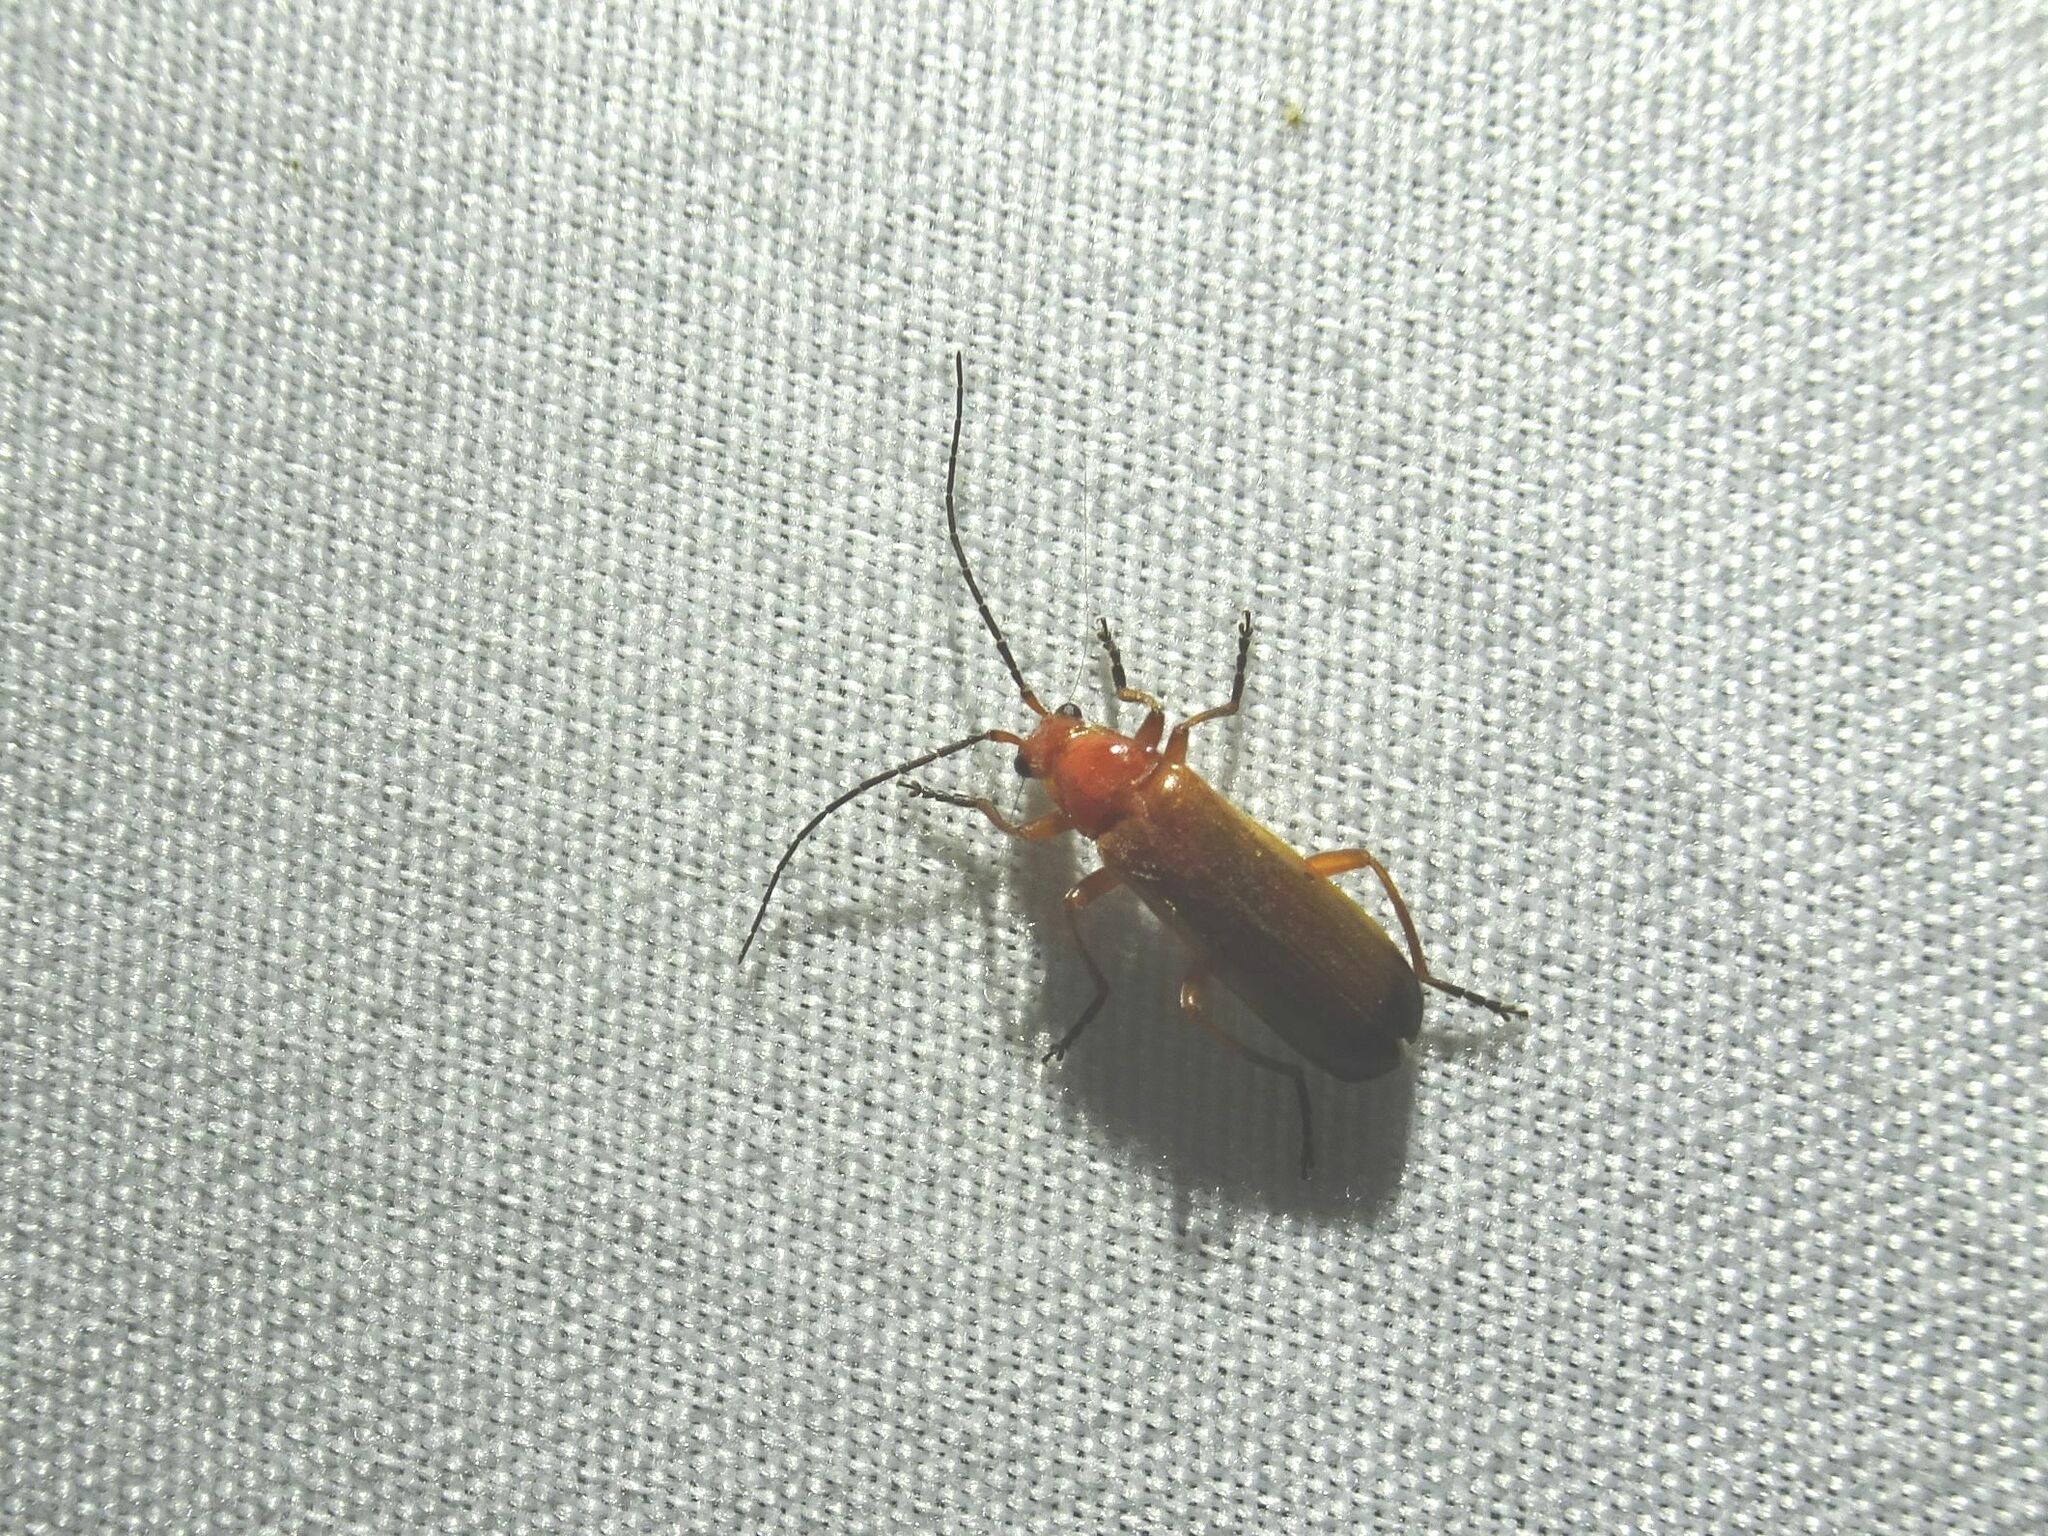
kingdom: Animalia
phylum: Arthropoda
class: Insecta
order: Coleoptera
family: Cantharidae
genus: Rhagonycha
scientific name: Rhagonycha fulva
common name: Common red soldier beetle
